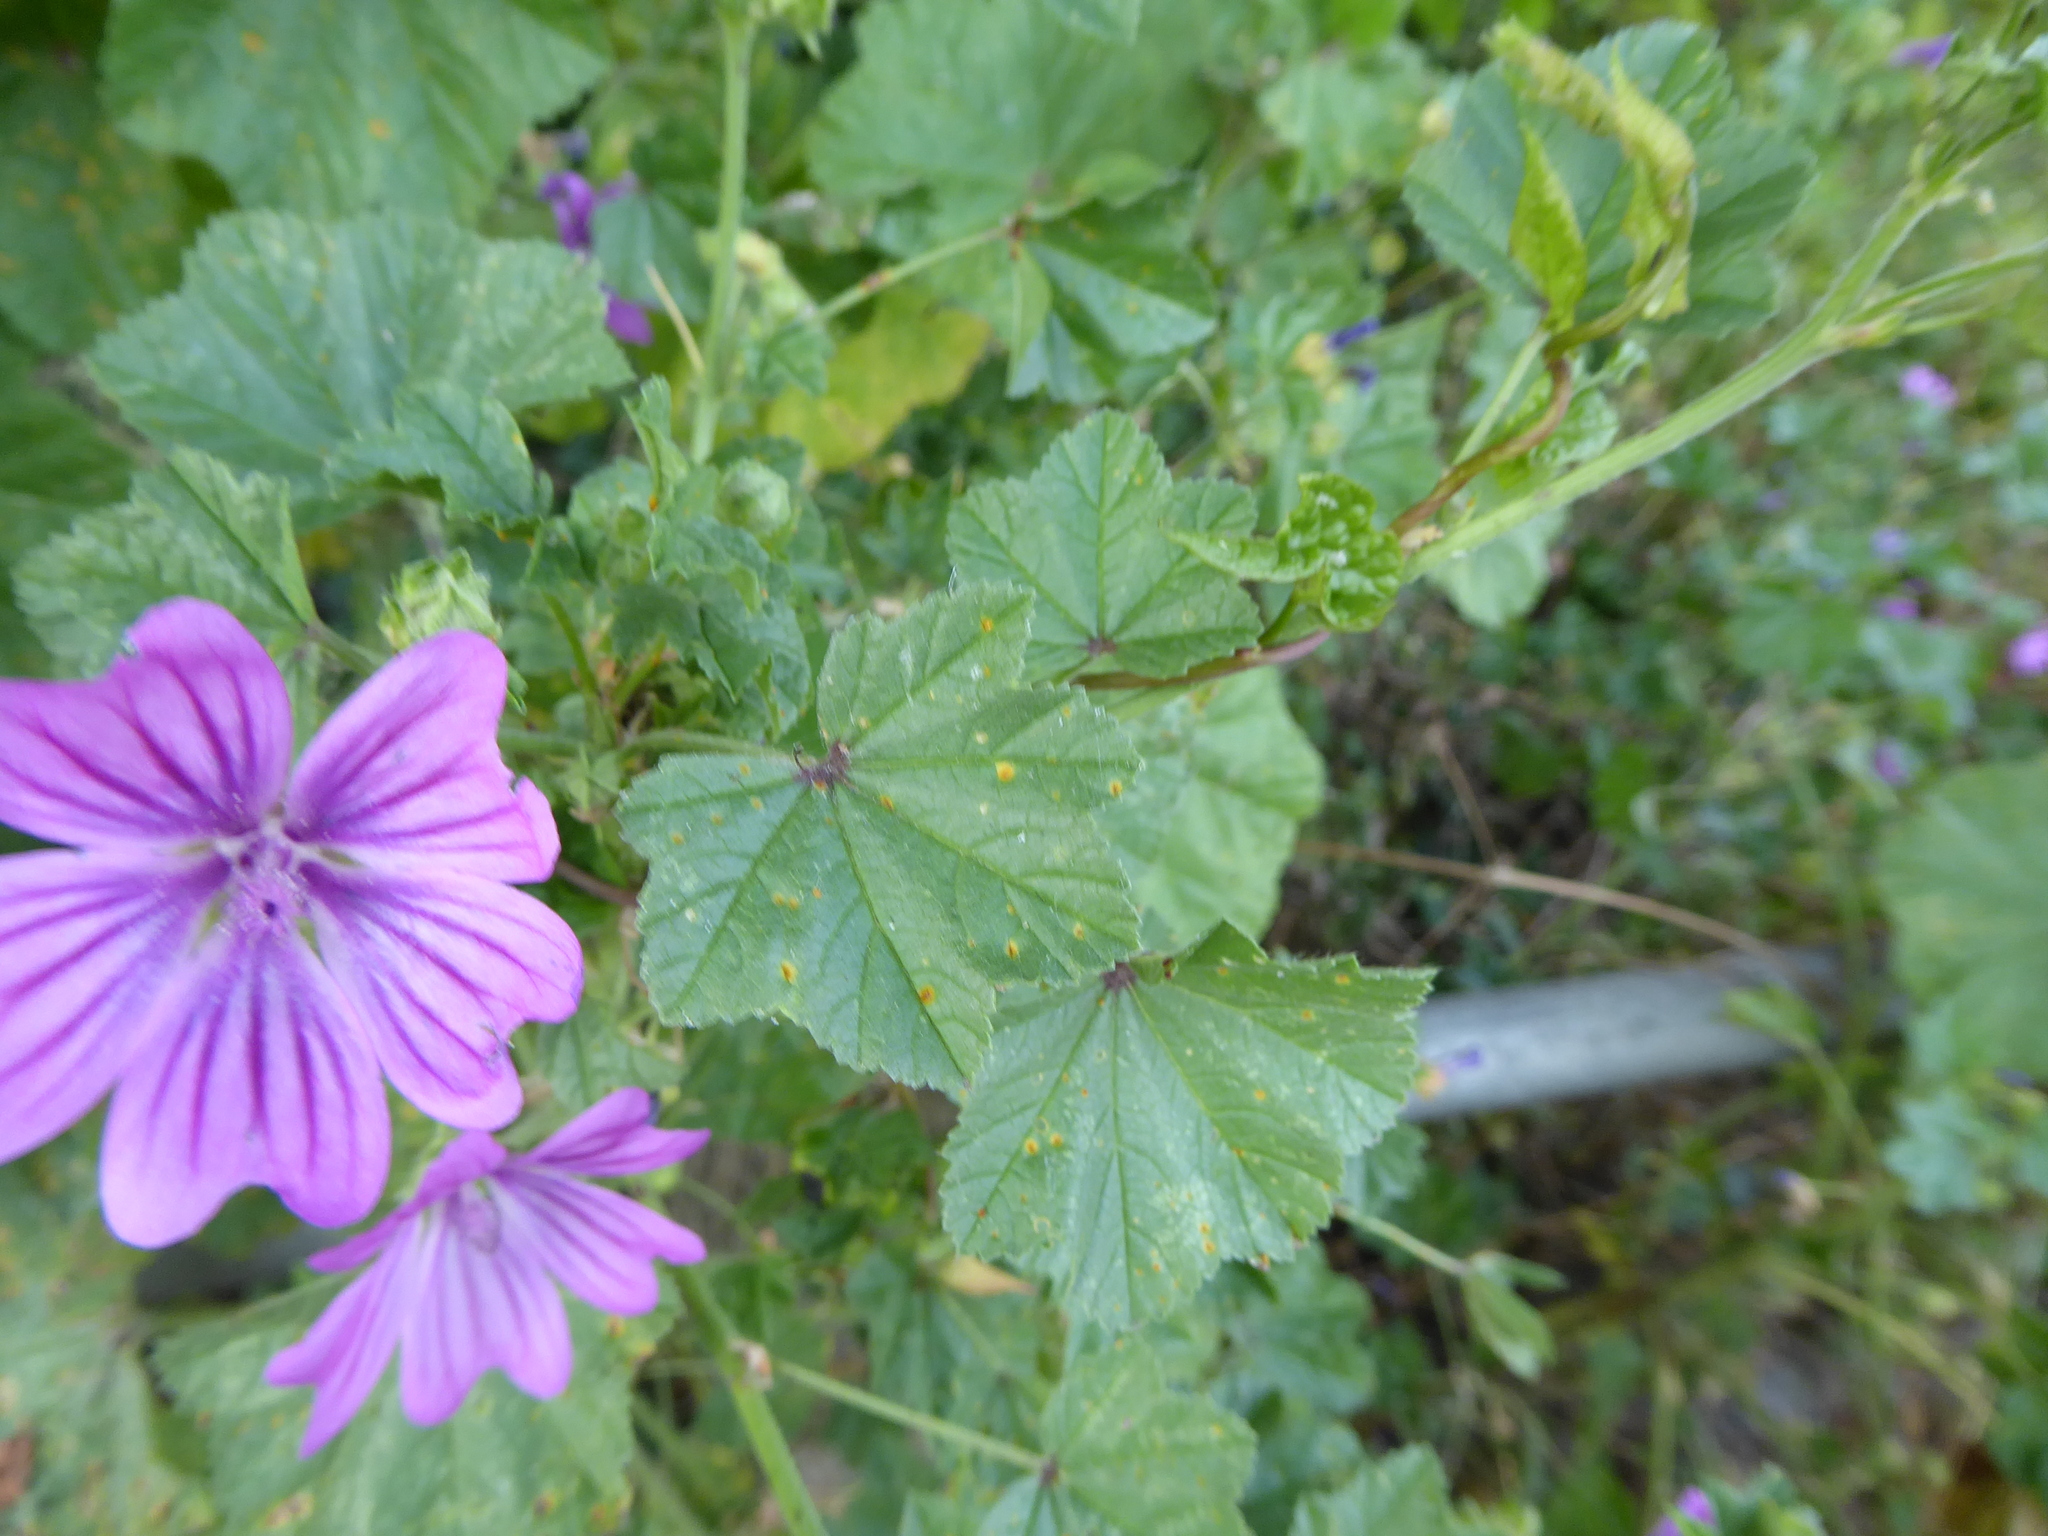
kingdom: Fungi
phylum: Basidiomycota
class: Pucciniomycetes
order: Pucciniales
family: Pucciniaceae
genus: Puccinia
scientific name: Puccinia malvacearum
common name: Hollyhock rust
